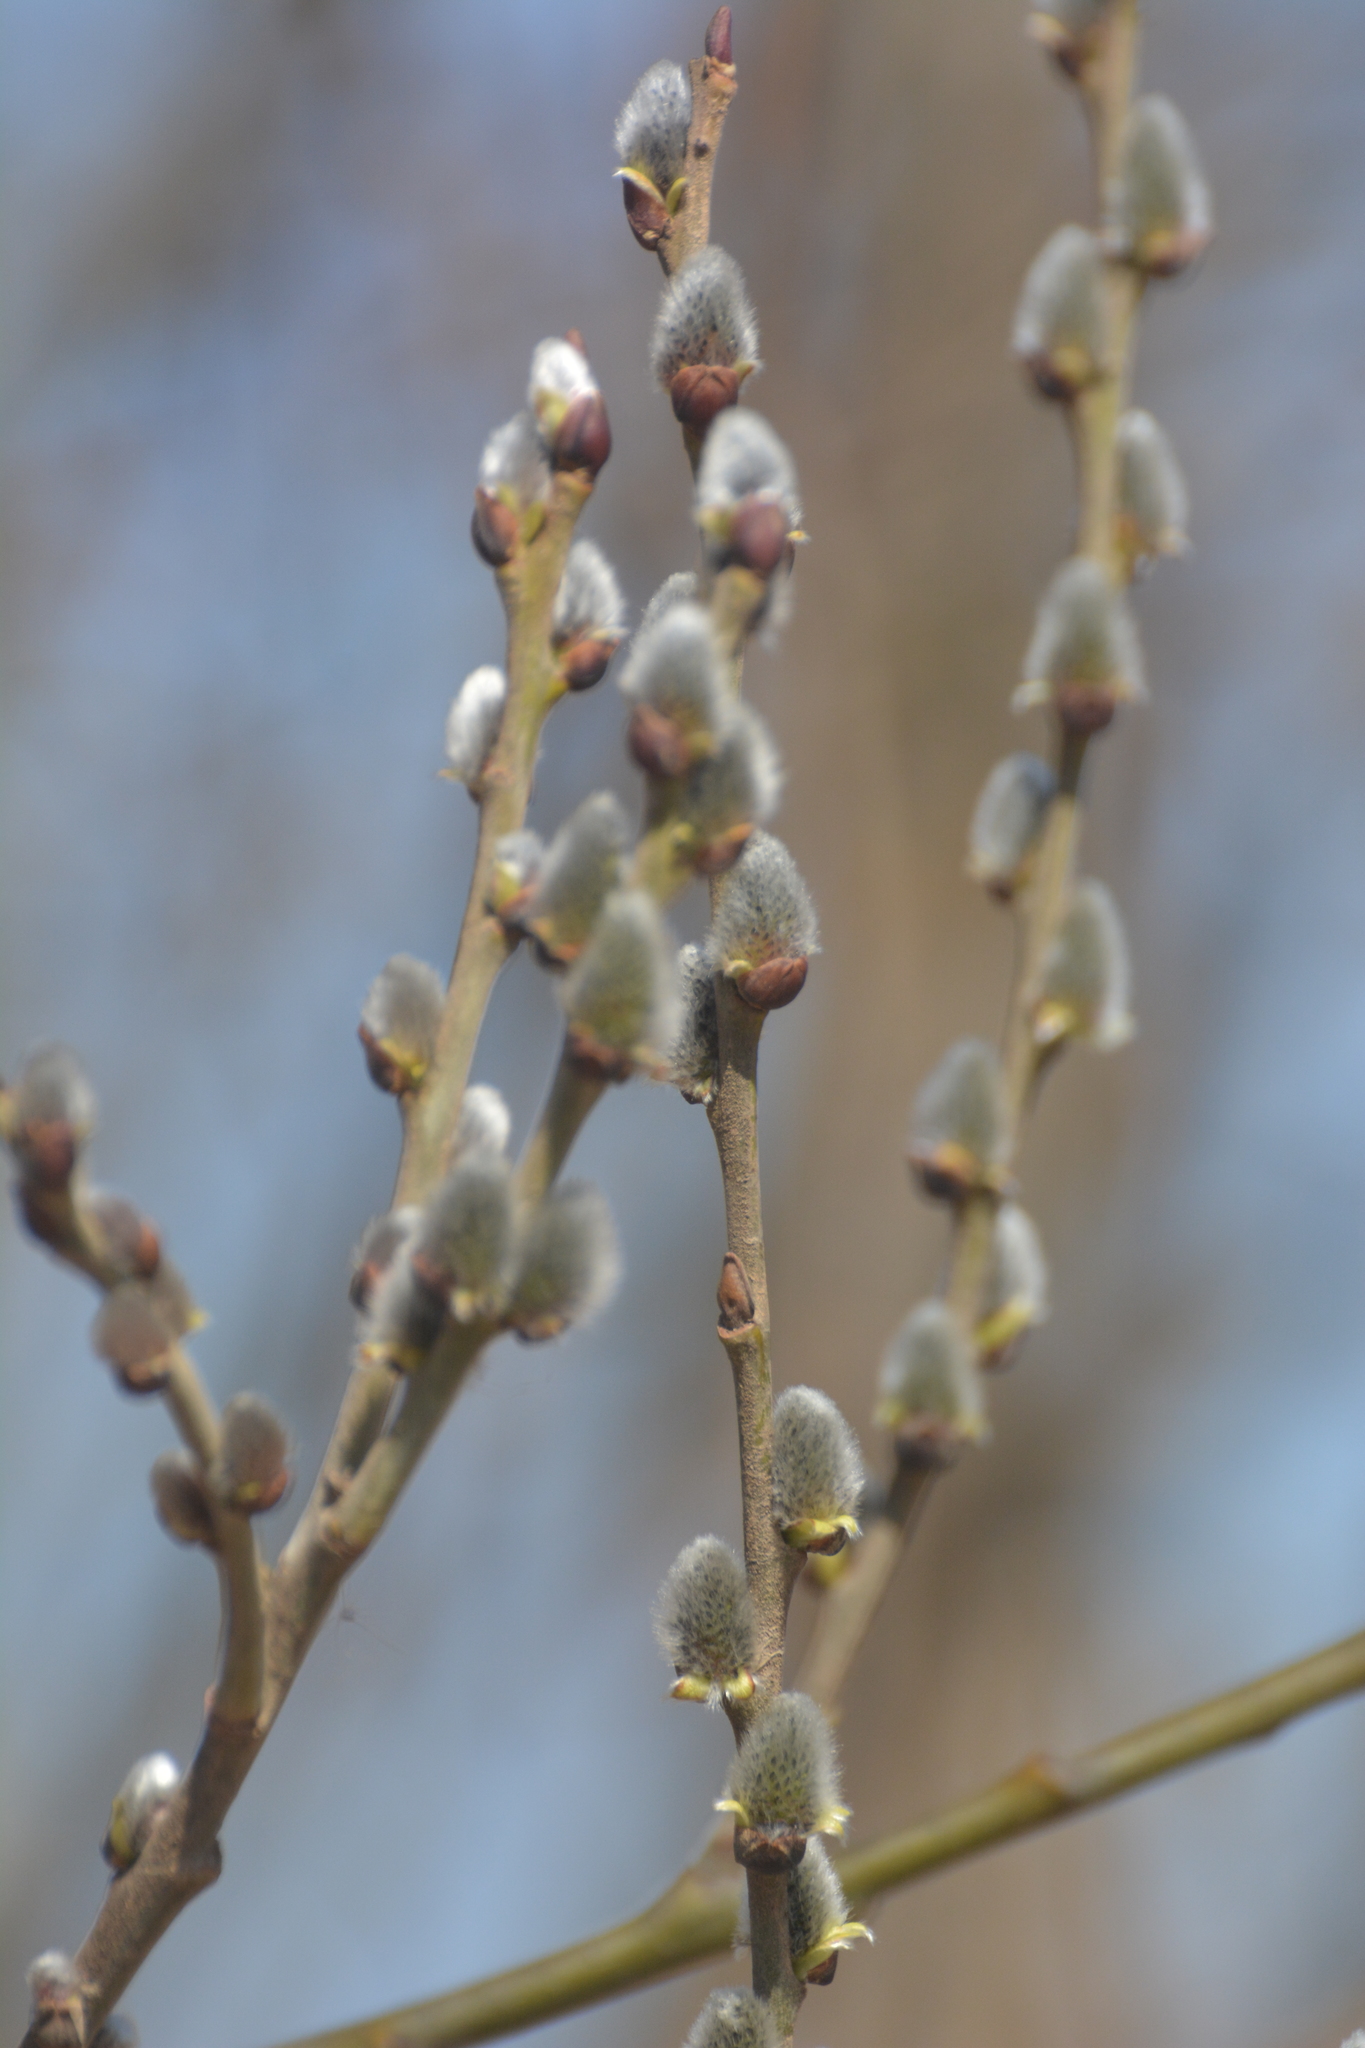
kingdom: Plantae
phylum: Tracheophyta
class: Magnoliopsida
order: Malpighiales
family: Salicaceae
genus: Salix
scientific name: Salix caprea
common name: Goat willow
